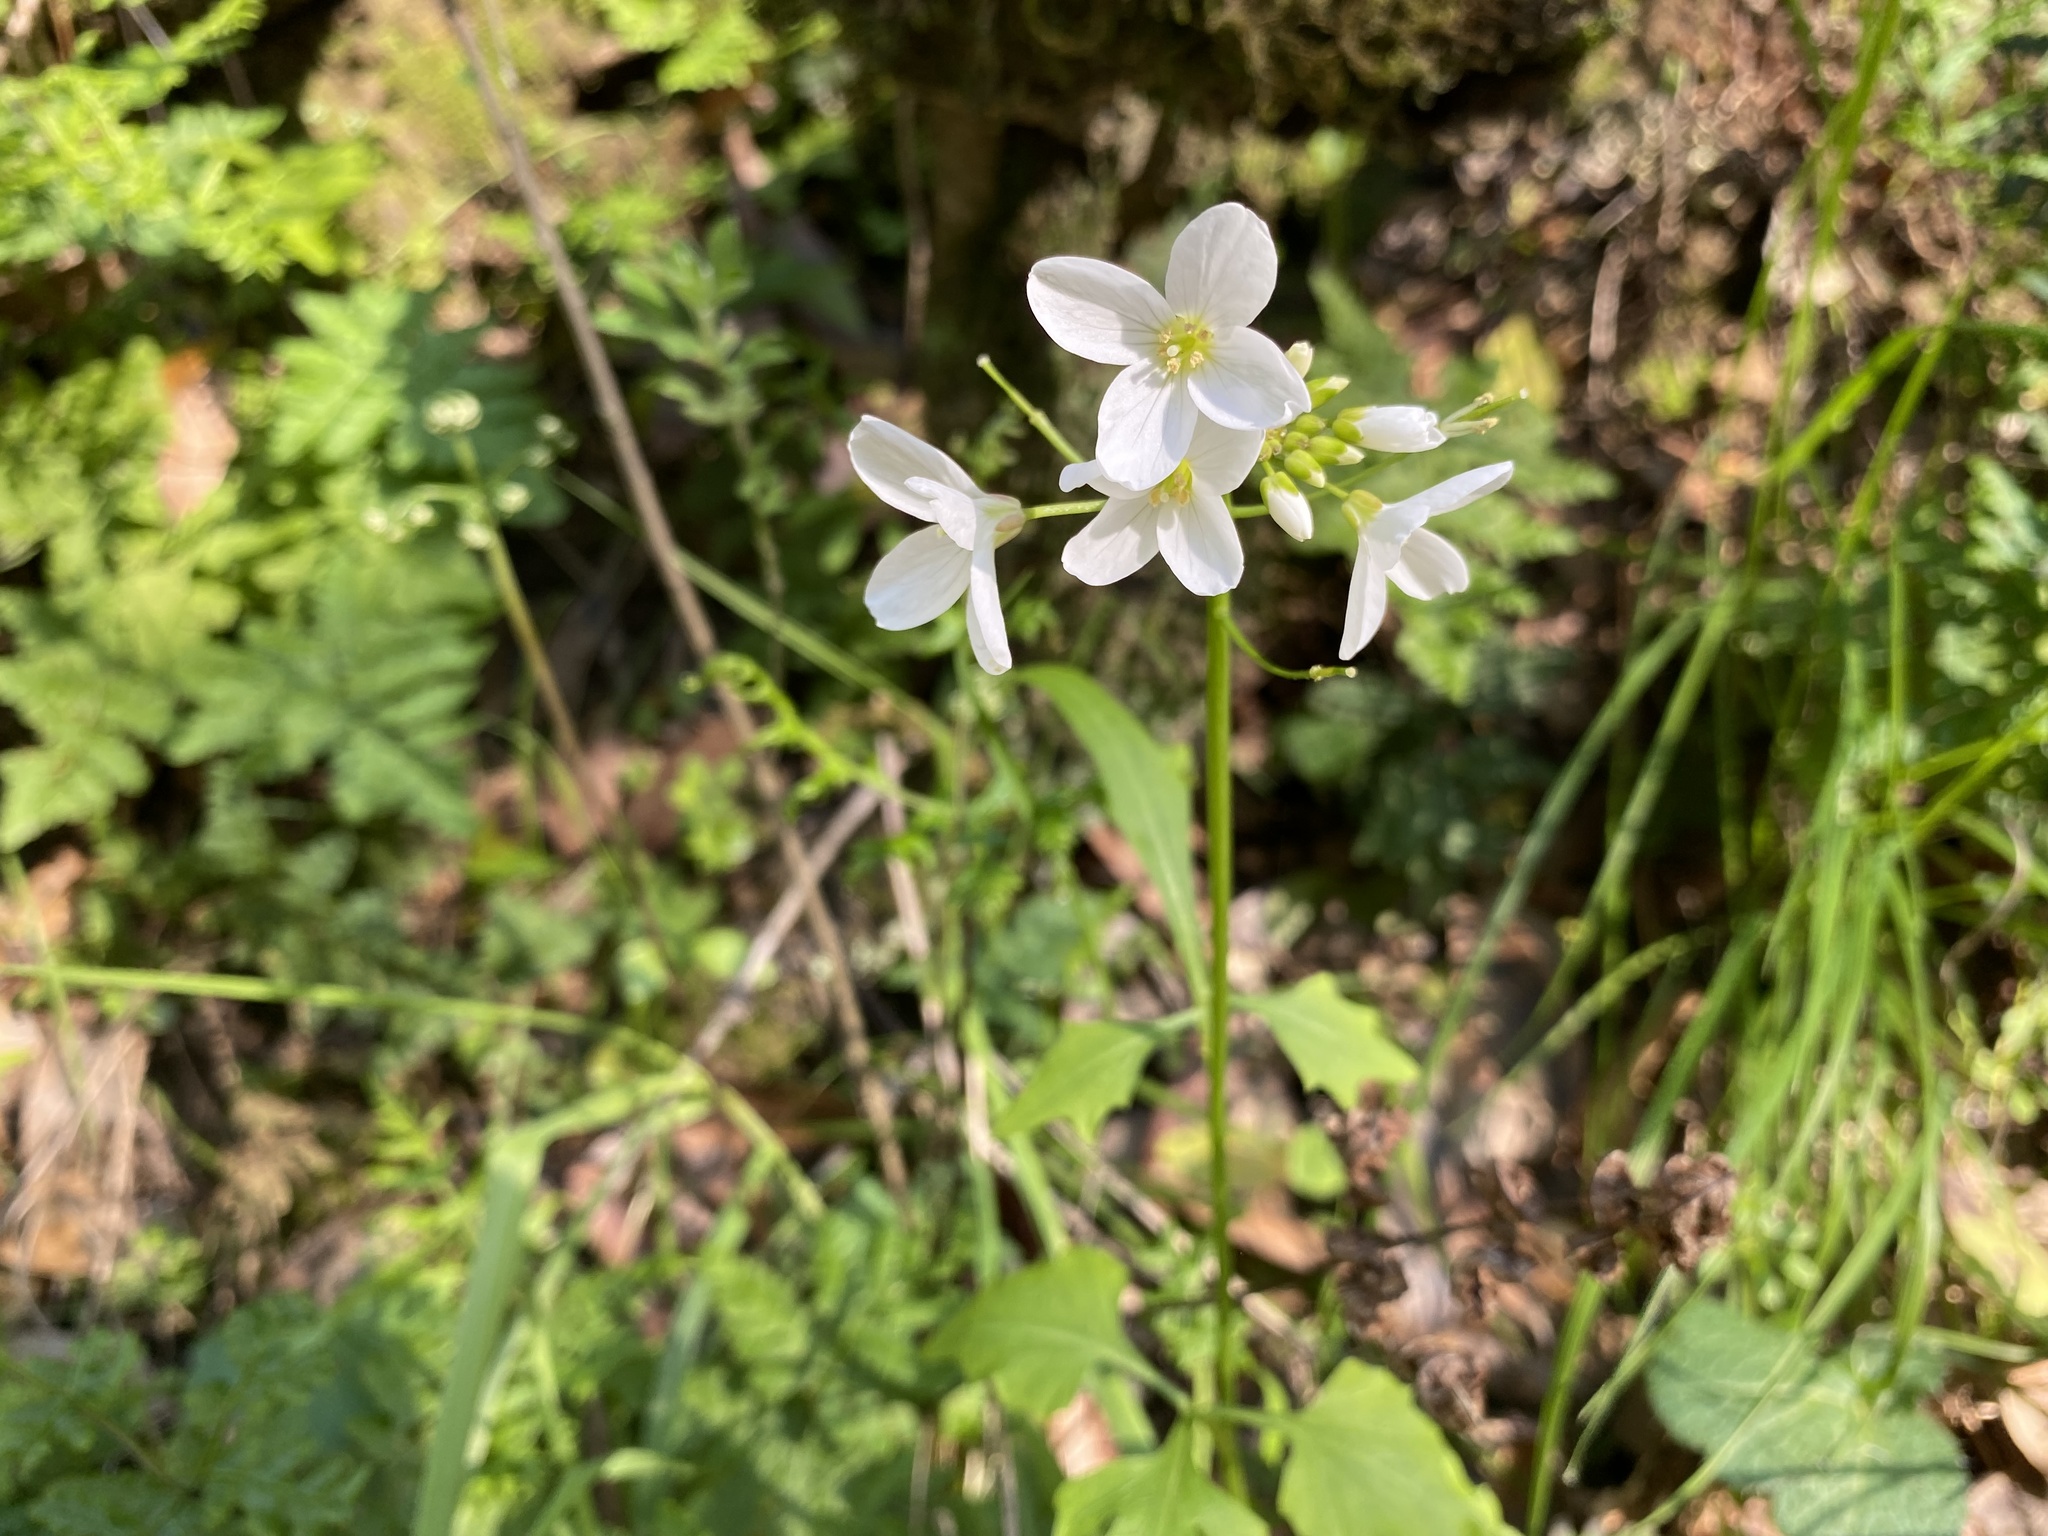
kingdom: Plantae
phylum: Tracheophyta
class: Magnoliopsida
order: Brassicales
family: Brassicaceae
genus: Cardamine
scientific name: Cardamine californica
